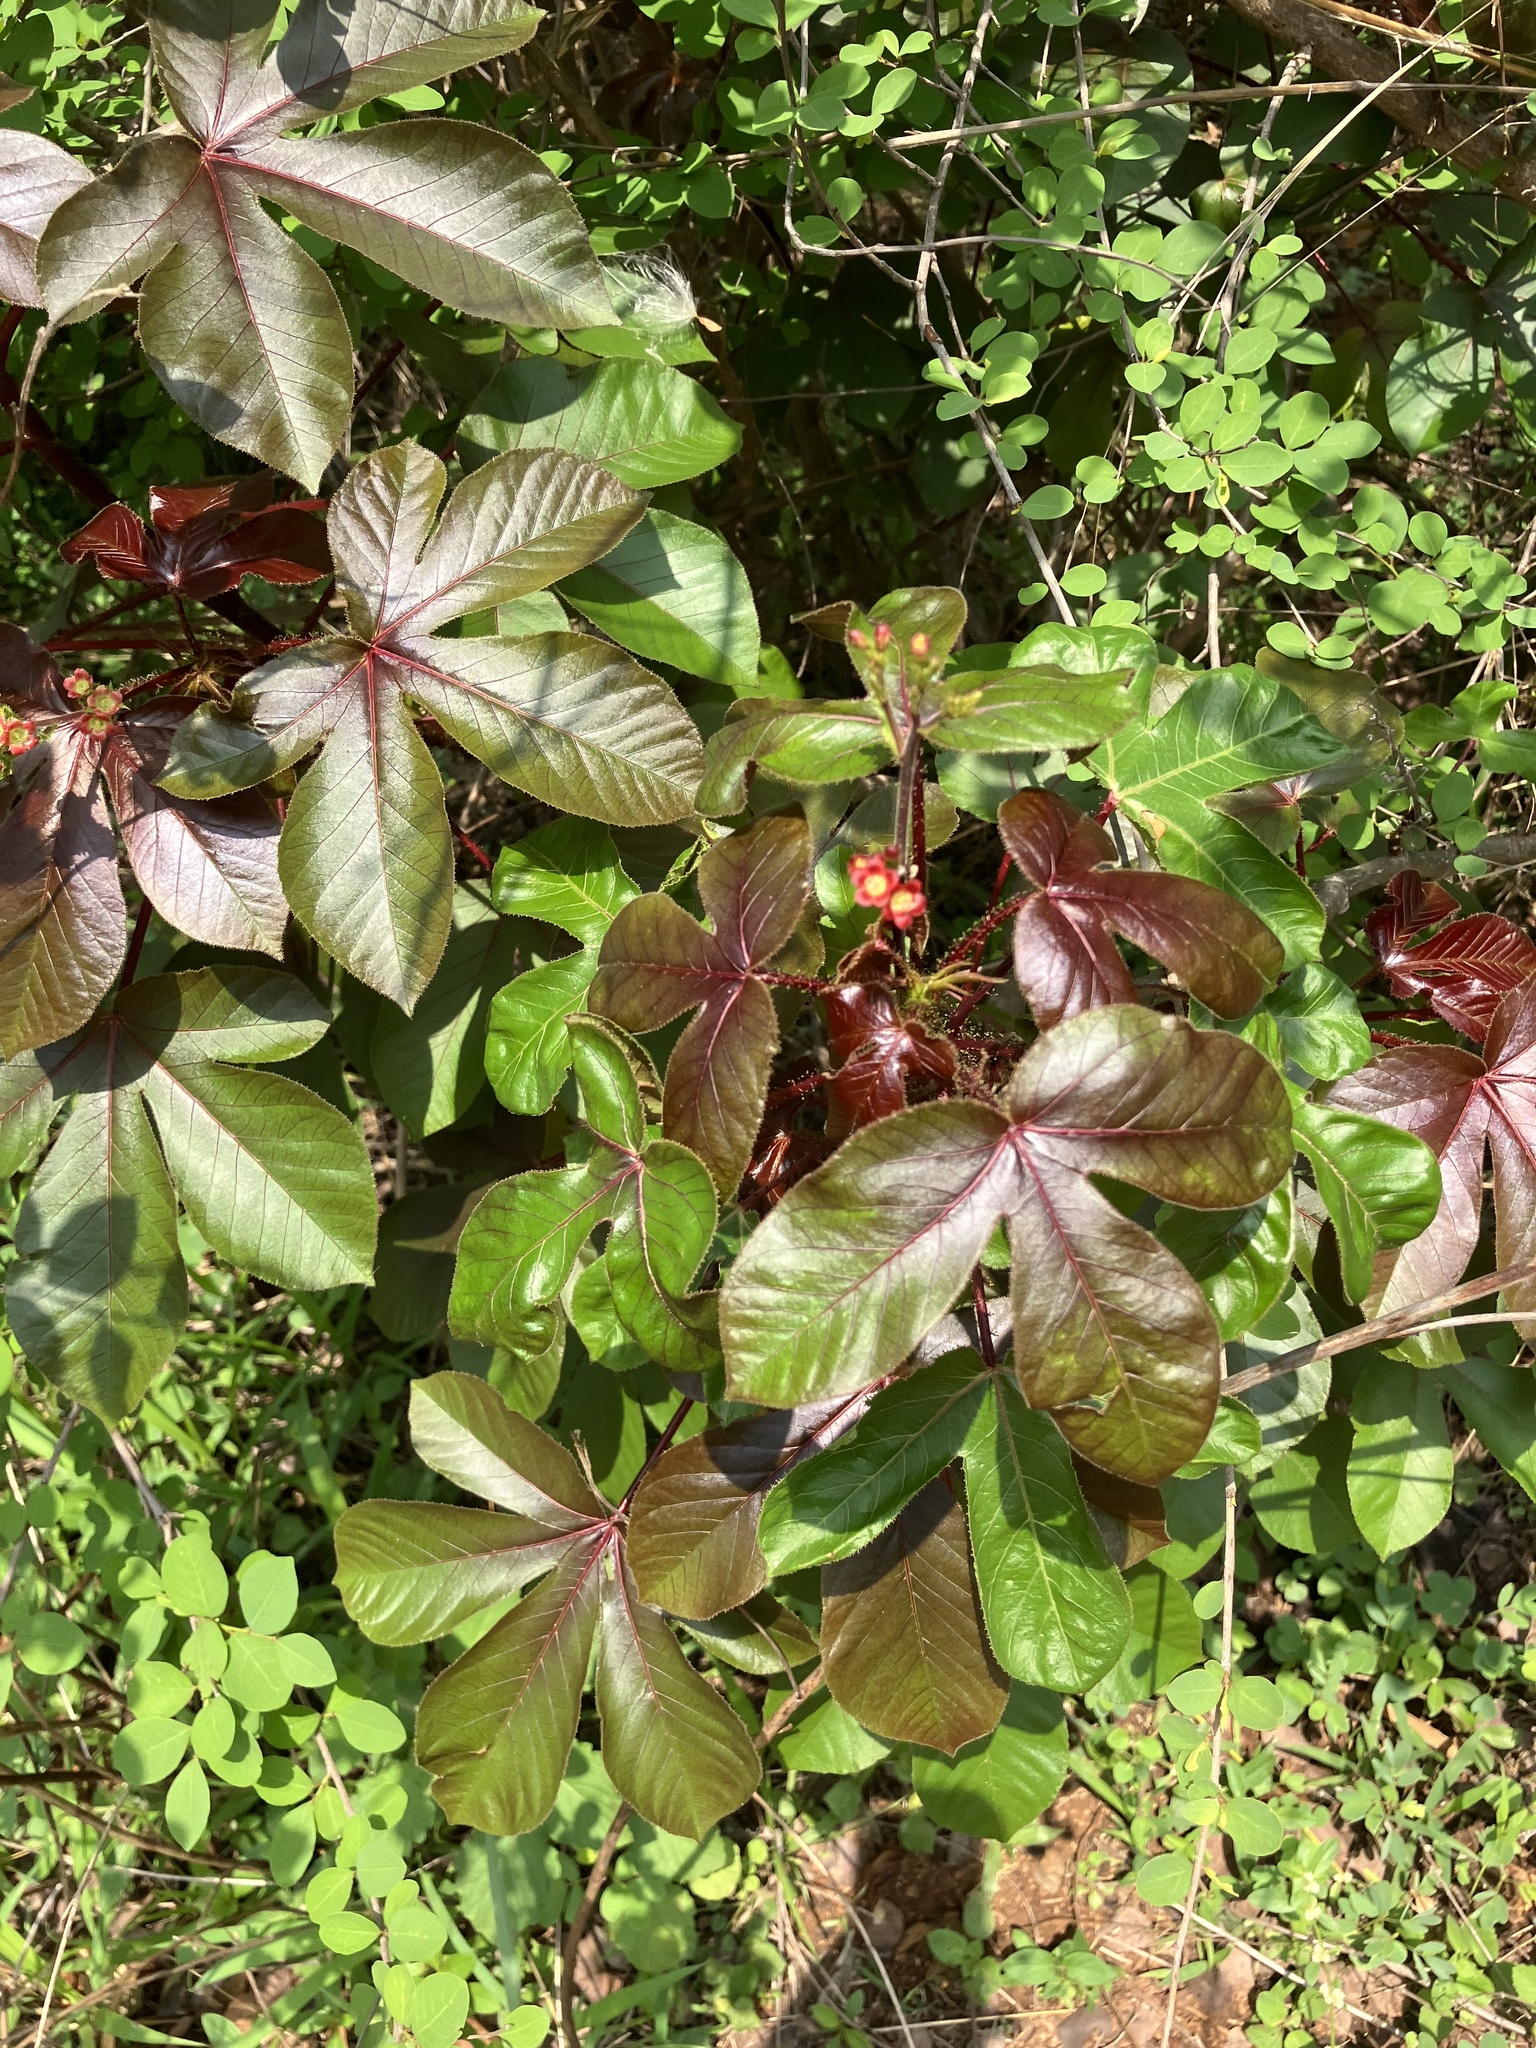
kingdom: Plantae
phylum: Tracheophyta
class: Magnoliopsida
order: Malpighiales
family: Euphorbiaceae
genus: Jatropha
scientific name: Jatropha gossypiifolia
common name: Bellyache bush
